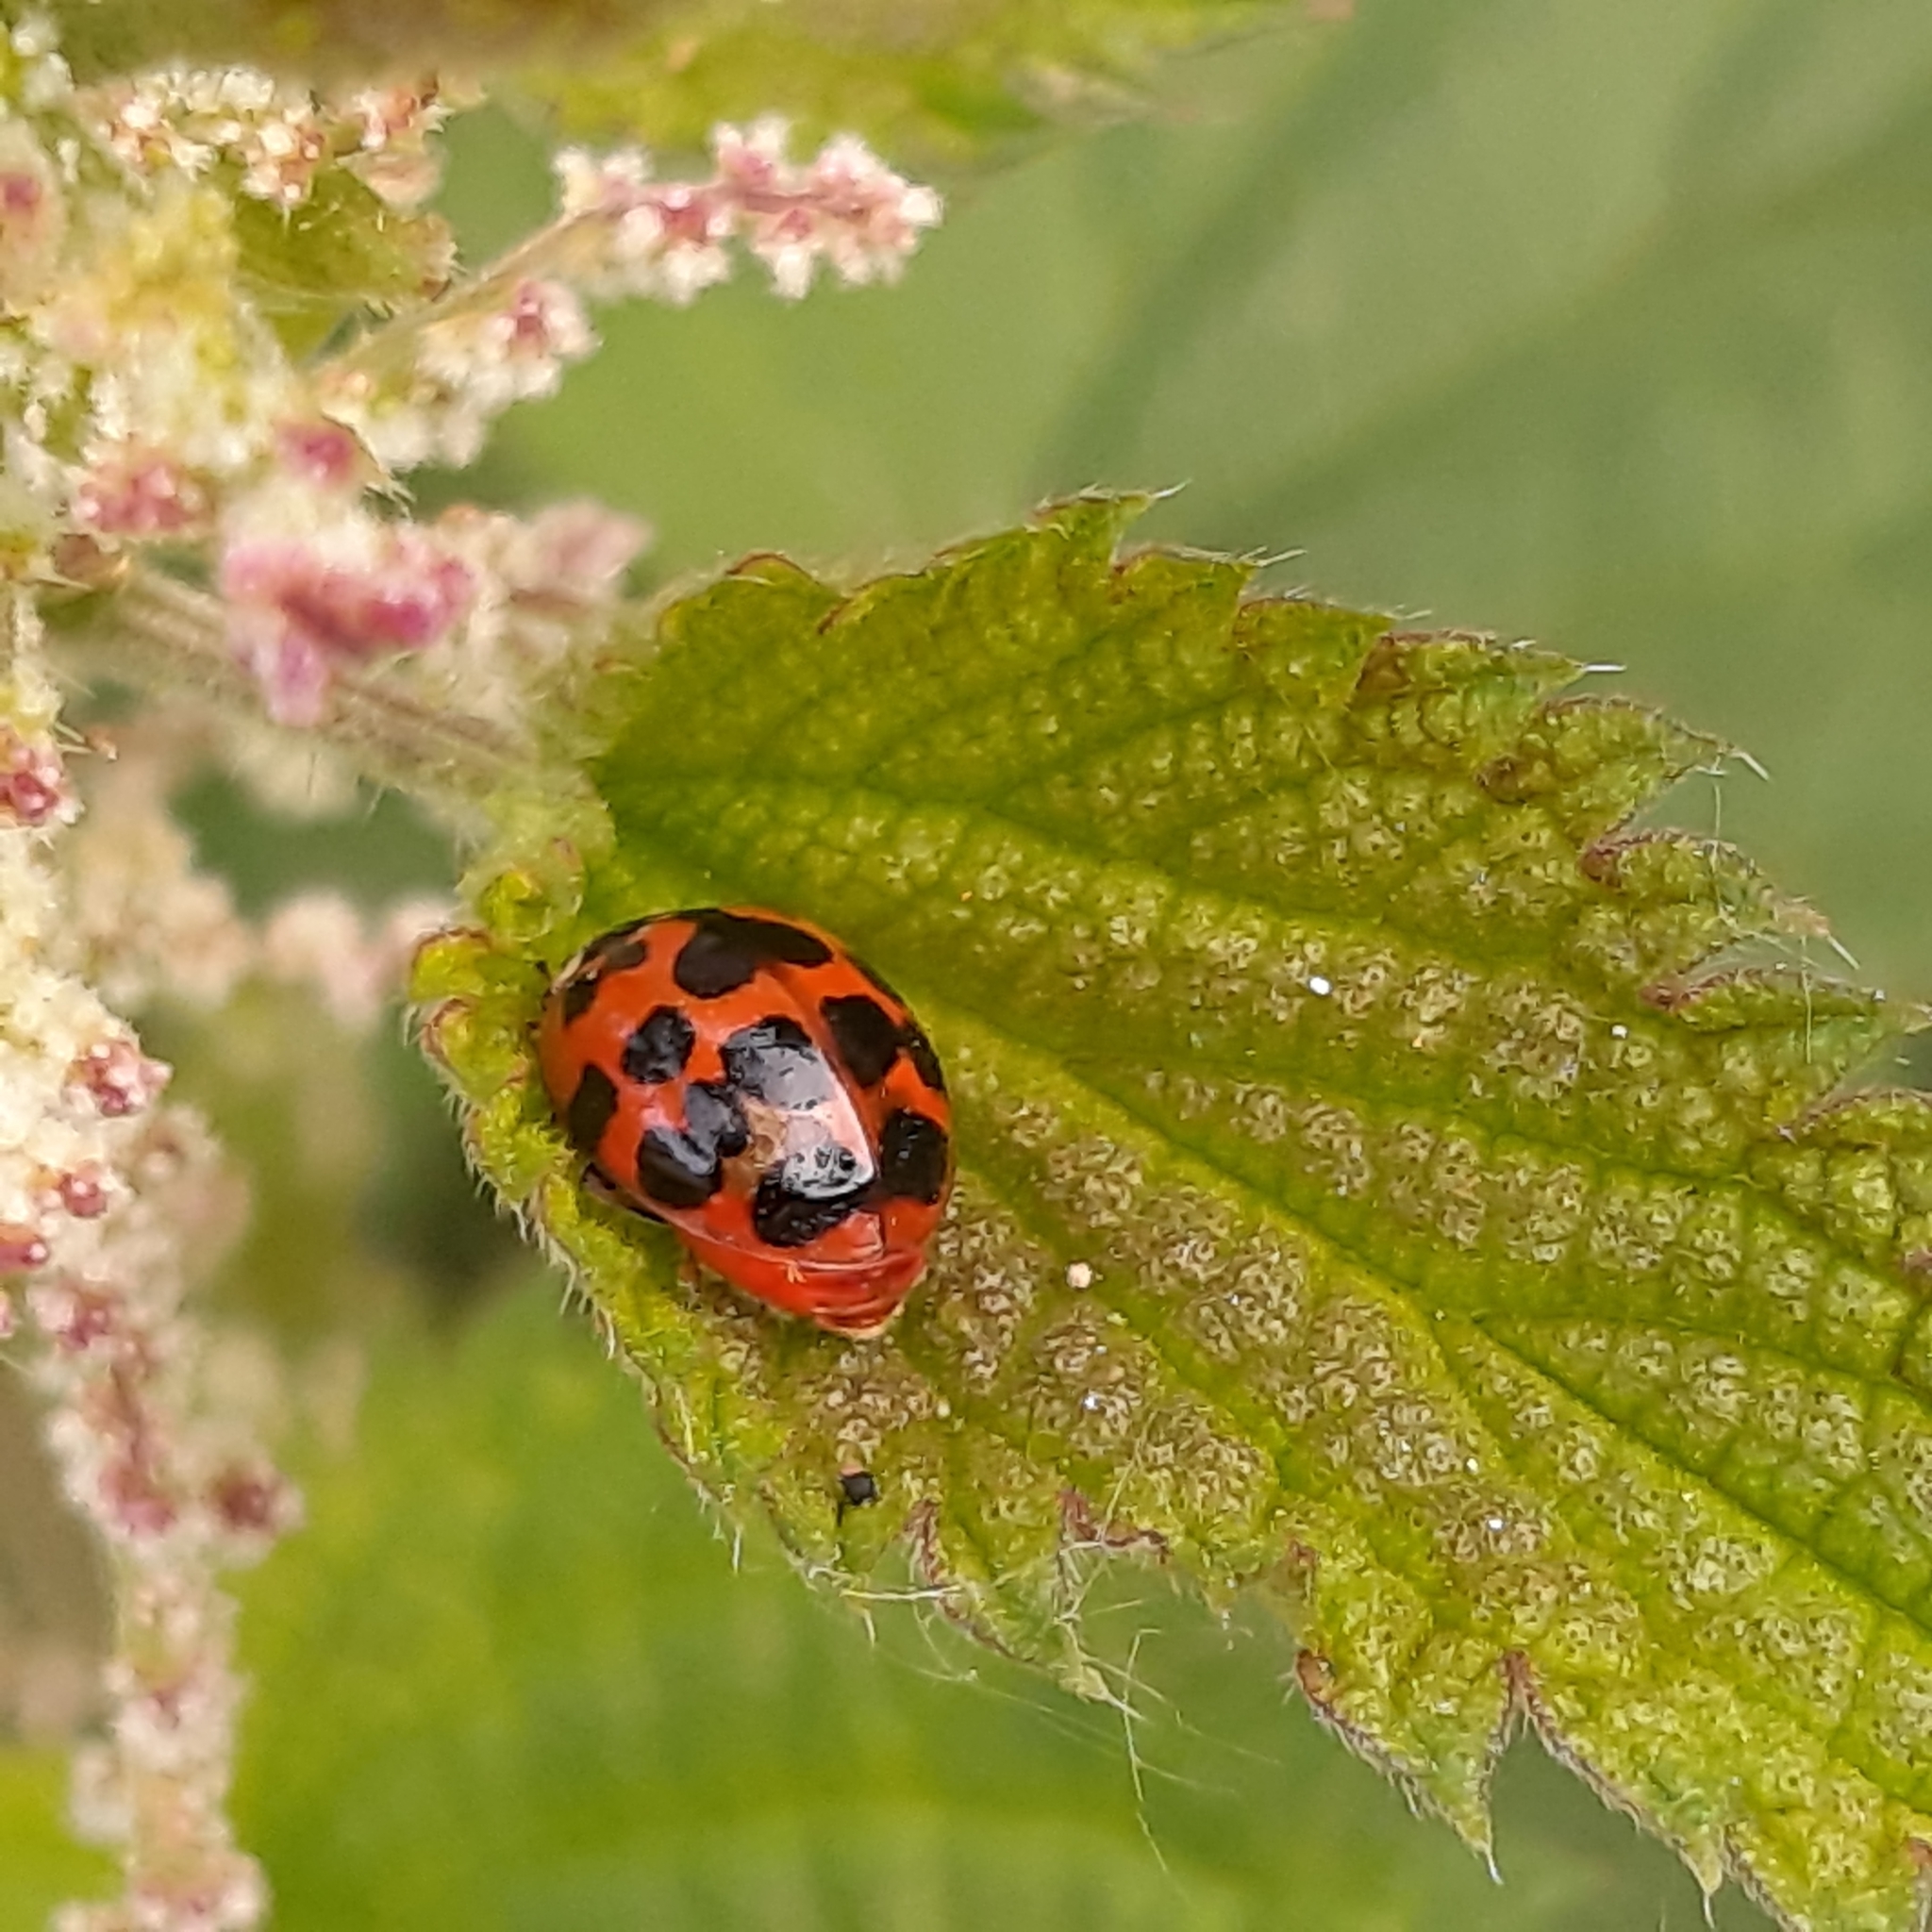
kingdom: Animalia
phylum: Arthropoda
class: Insecta
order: Coleoptera
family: Coccinellidae
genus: Harmonia
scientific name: Harmonia axyridis
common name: Harlequin ladybird
